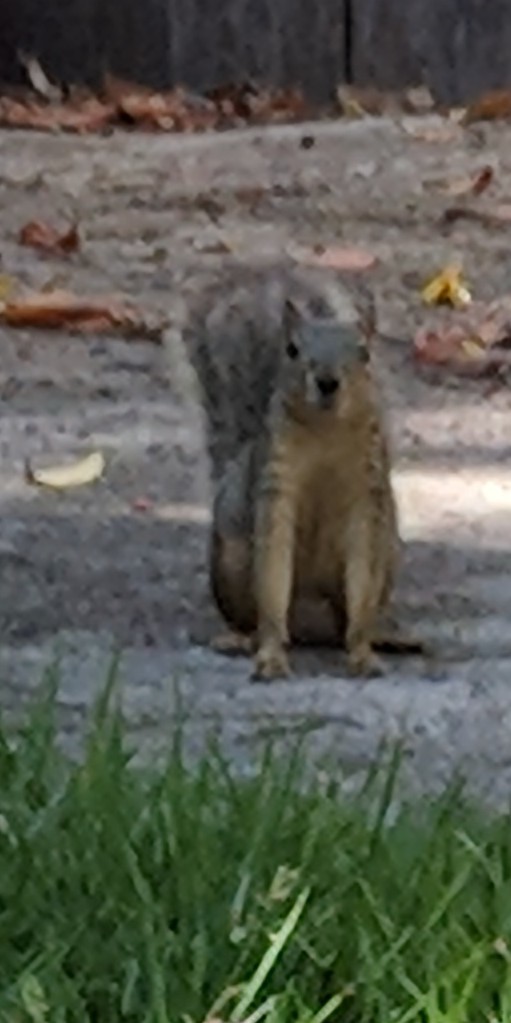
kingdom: Animalia
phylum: Chordata
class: Mammalia
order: Rodentia
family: Sciuridae
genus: Sciurus
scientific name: Sciurus niger
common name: Fox squirrel
